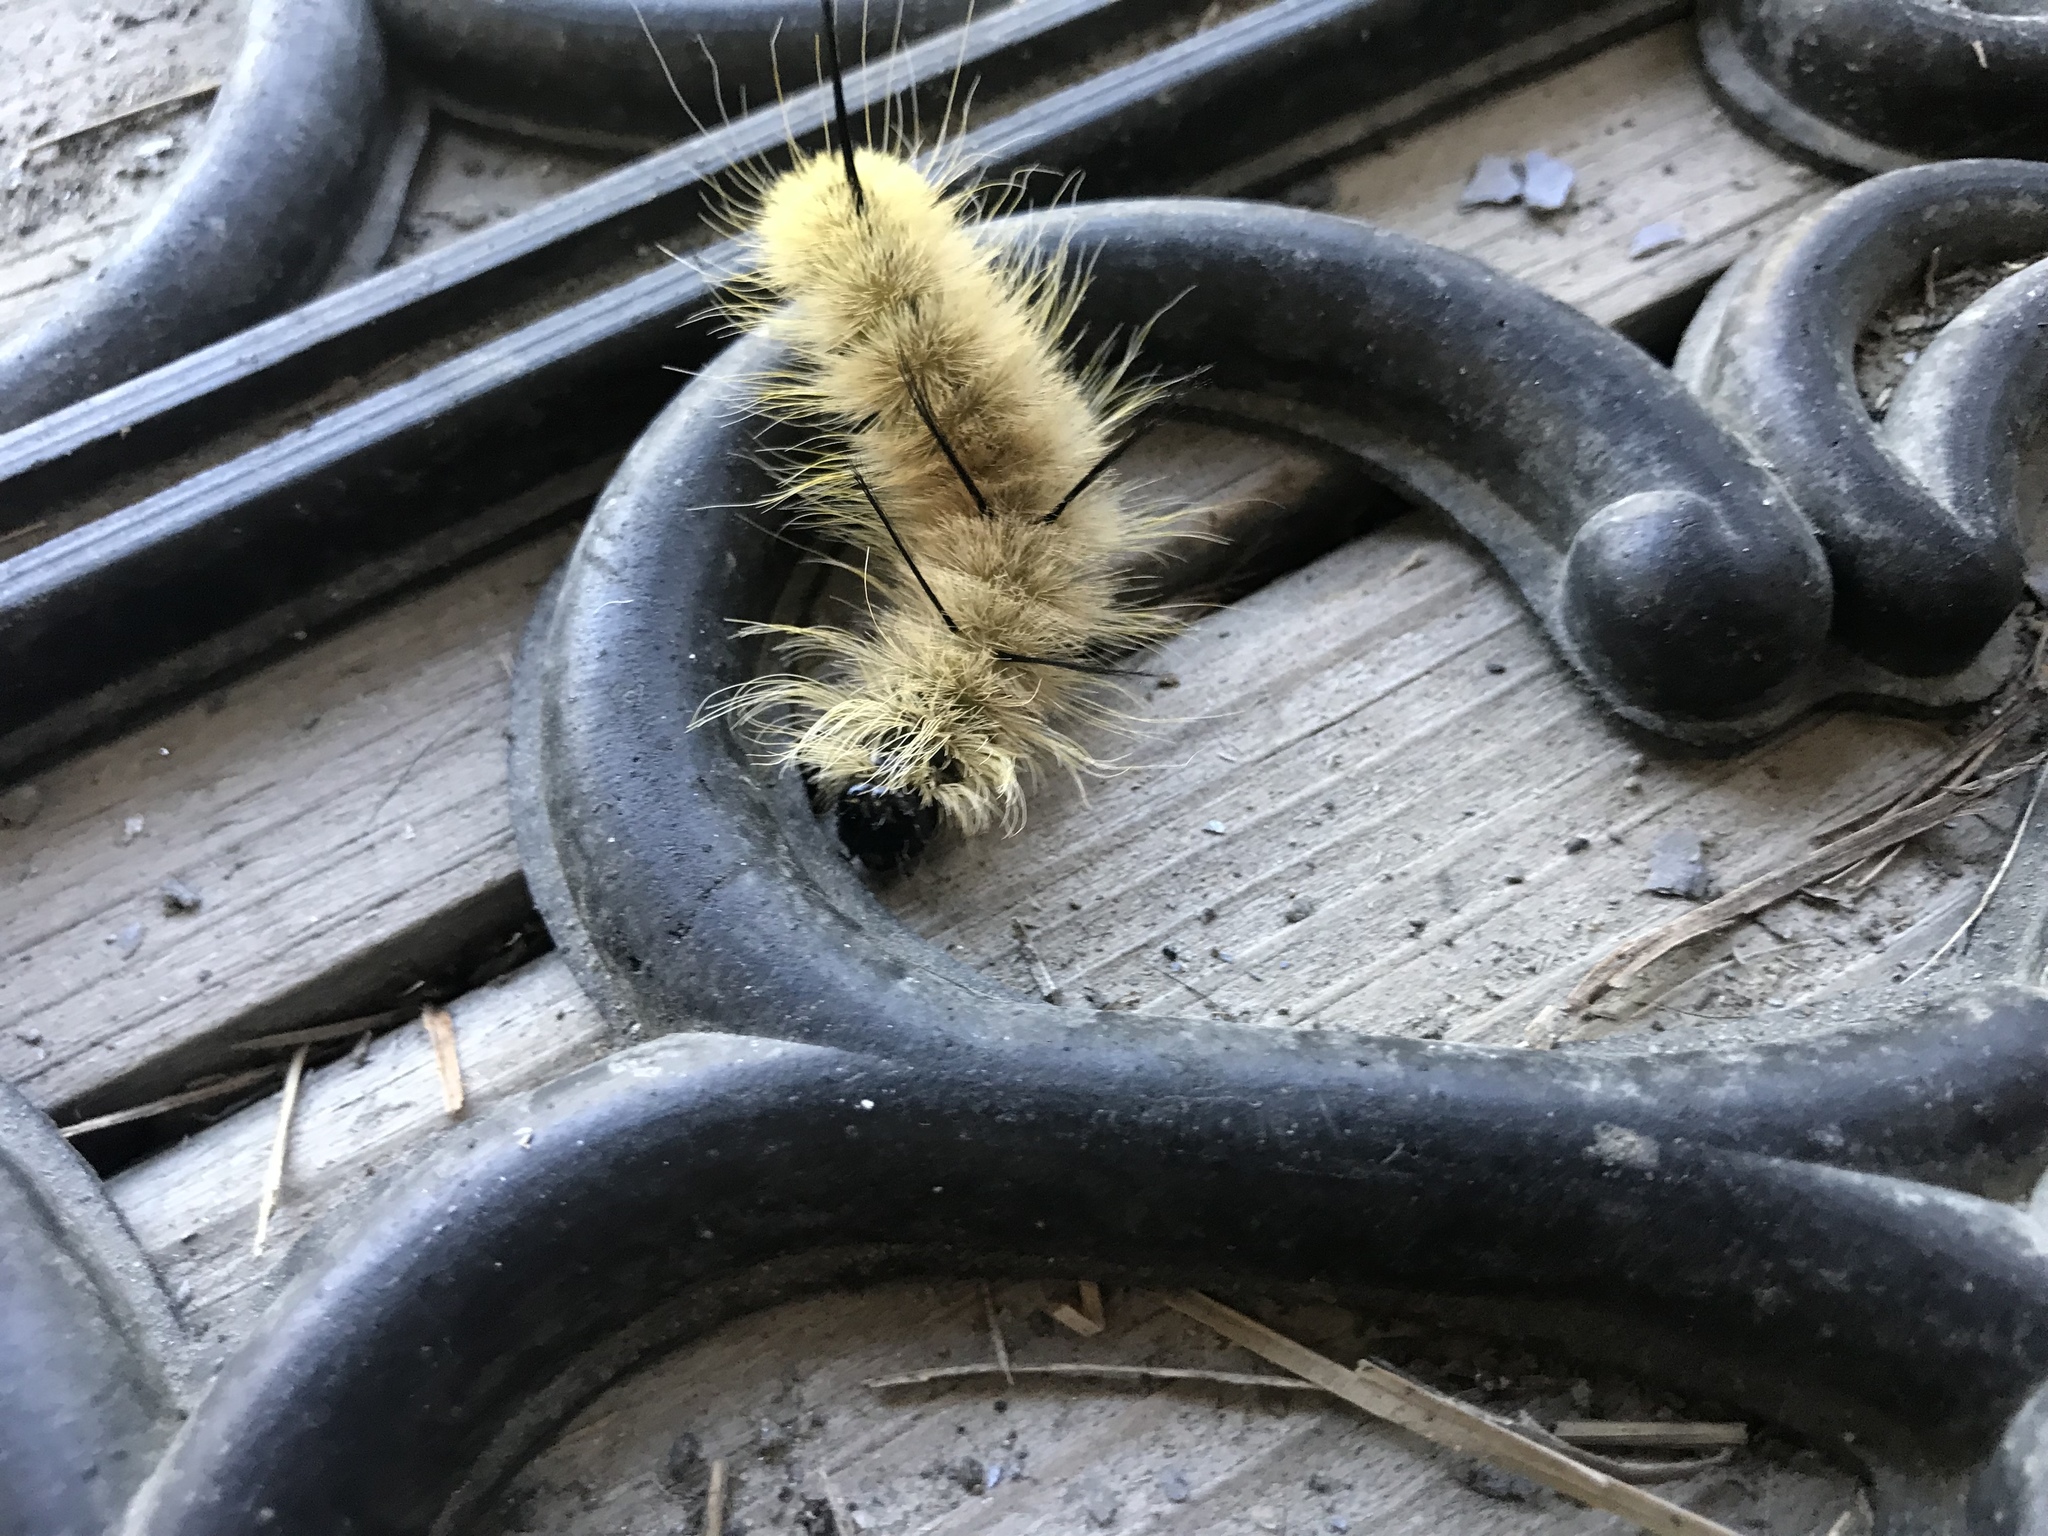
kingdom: Animalia
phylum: Arthropoda
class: Insecta
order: Lepidoptera
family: Noctuidae
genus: Acronicta
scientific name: Acronicta americana
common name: American dagger
